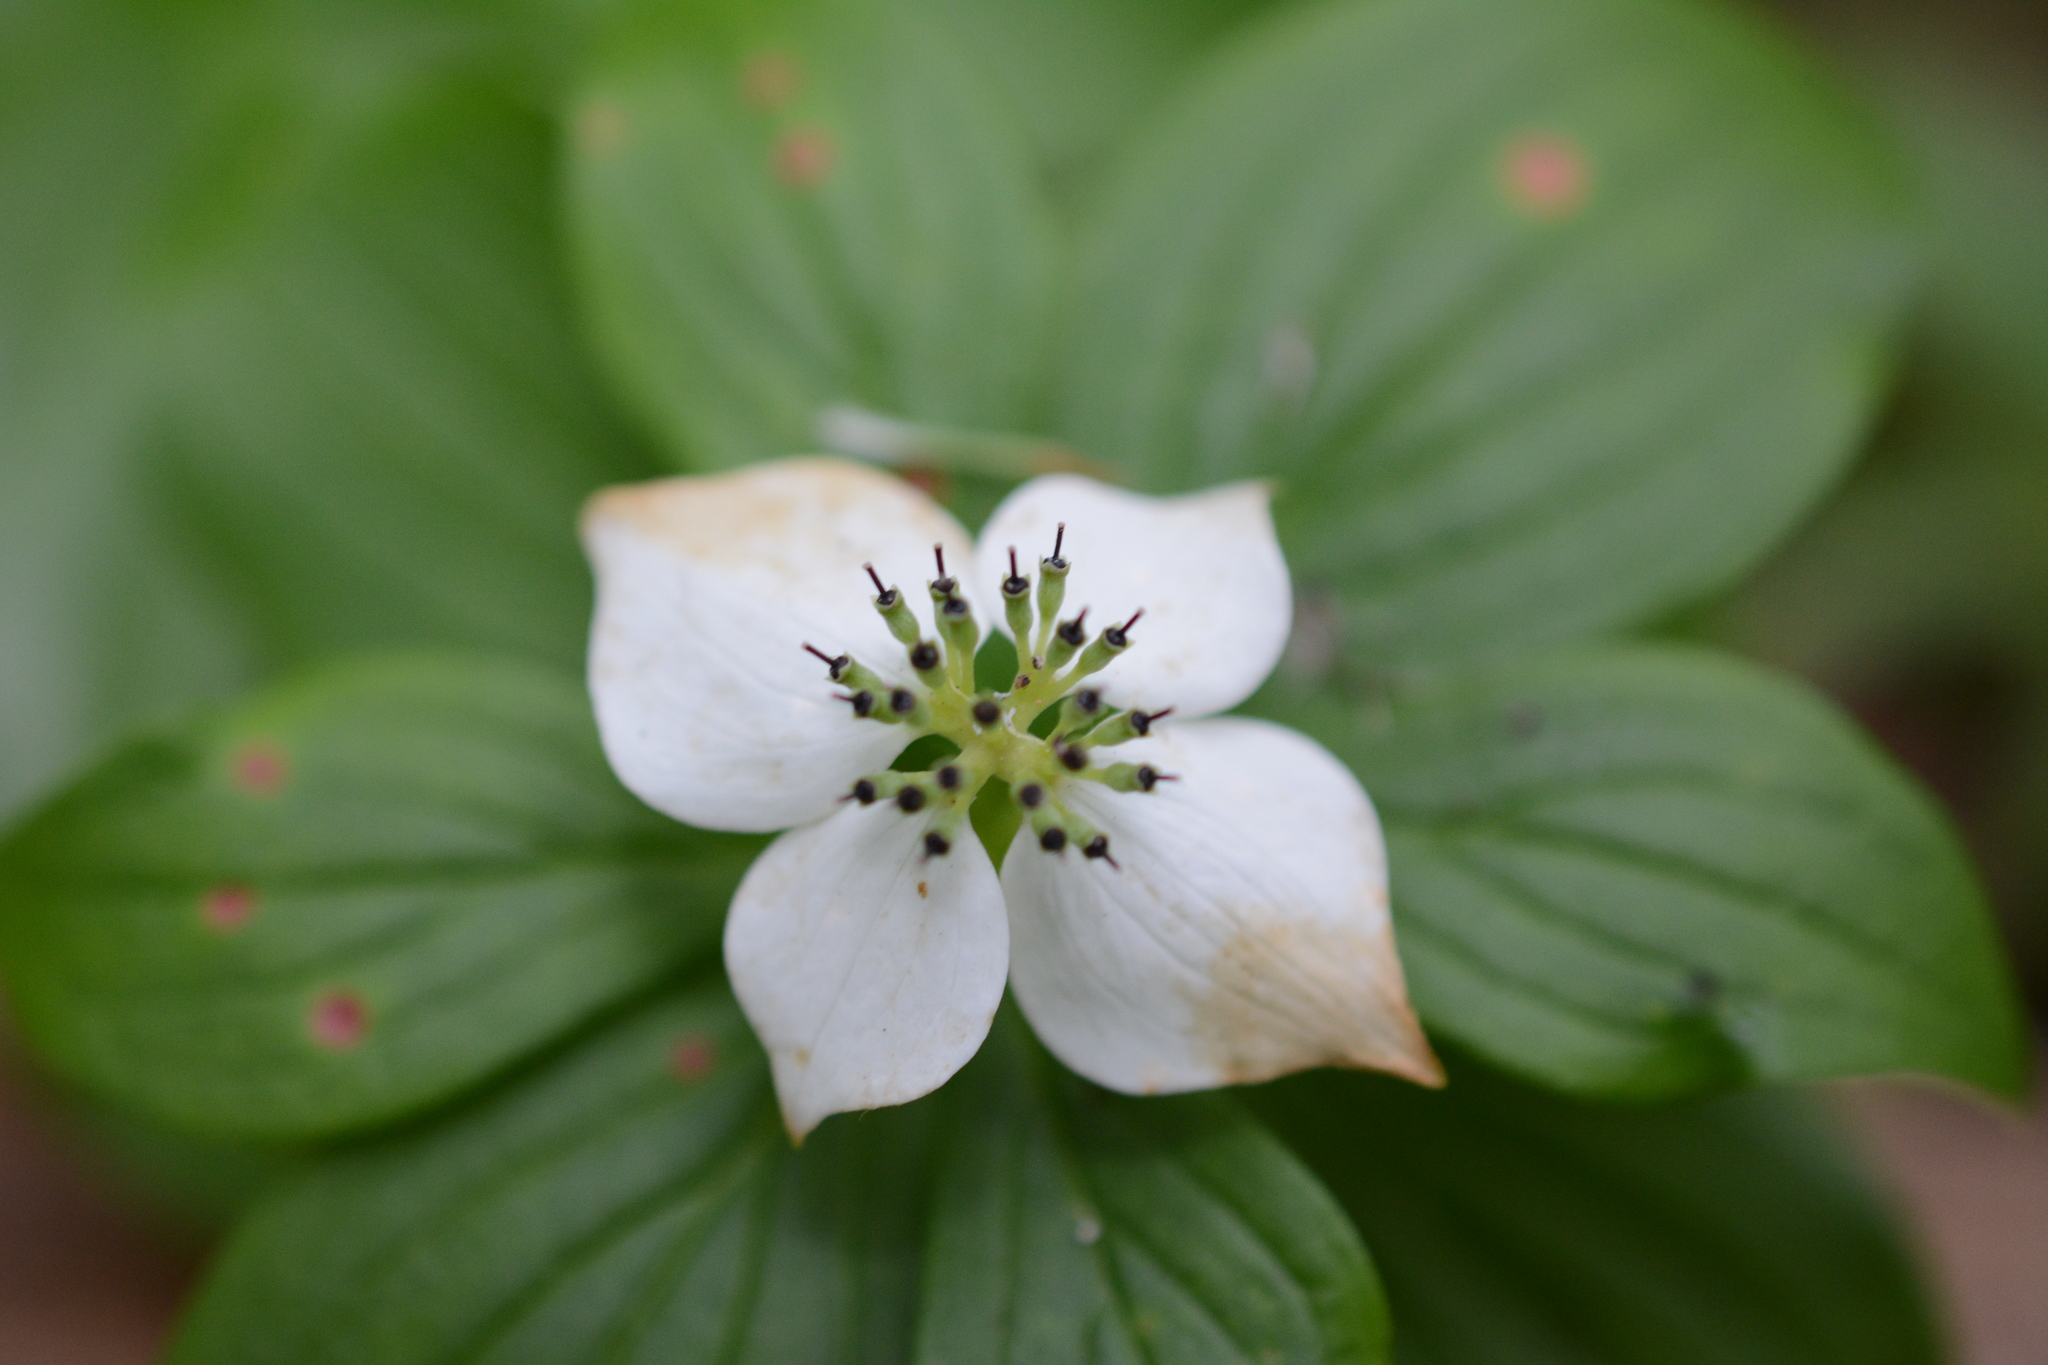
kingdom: Plantae
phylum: Tracheophyta
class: Magnoliopsida
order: Cornales
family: Cornaceae
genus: Cornus
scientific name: Cornus unalaschkensis
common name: Alaska bunchberry
